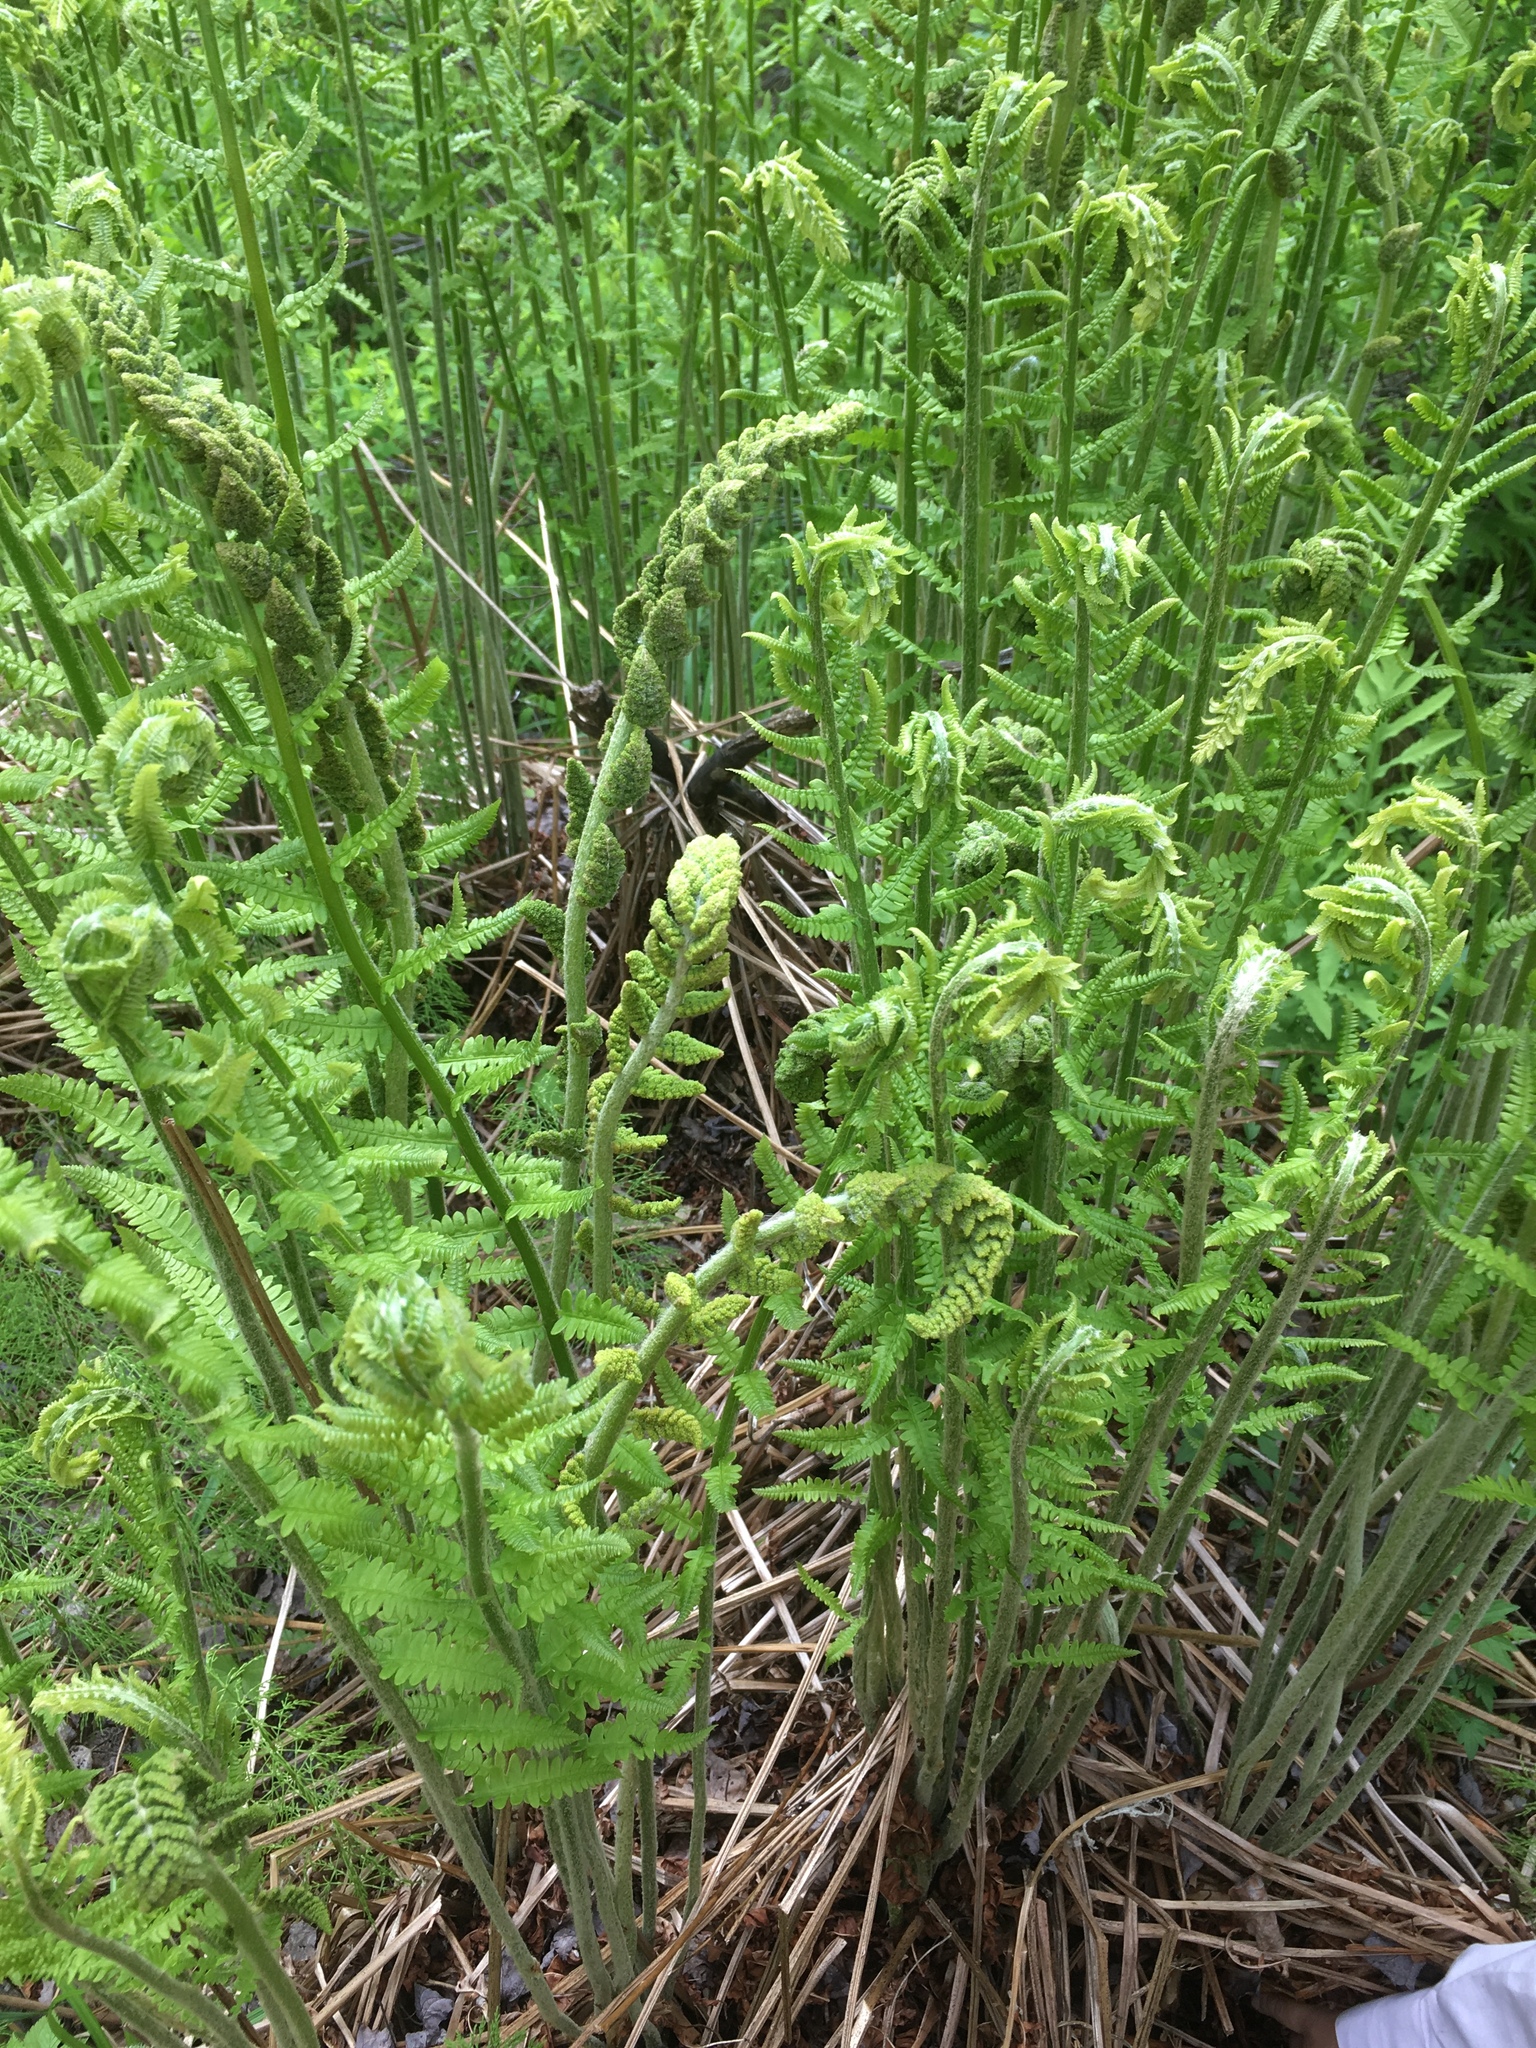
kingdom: Plantae
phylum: Tracheophyta
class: Polypodiopsida
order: Osmundales
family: Osmundaceae
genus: Osmundastrum
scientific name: Osmundastrum cinnamomeum
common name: Cinnamon fern
